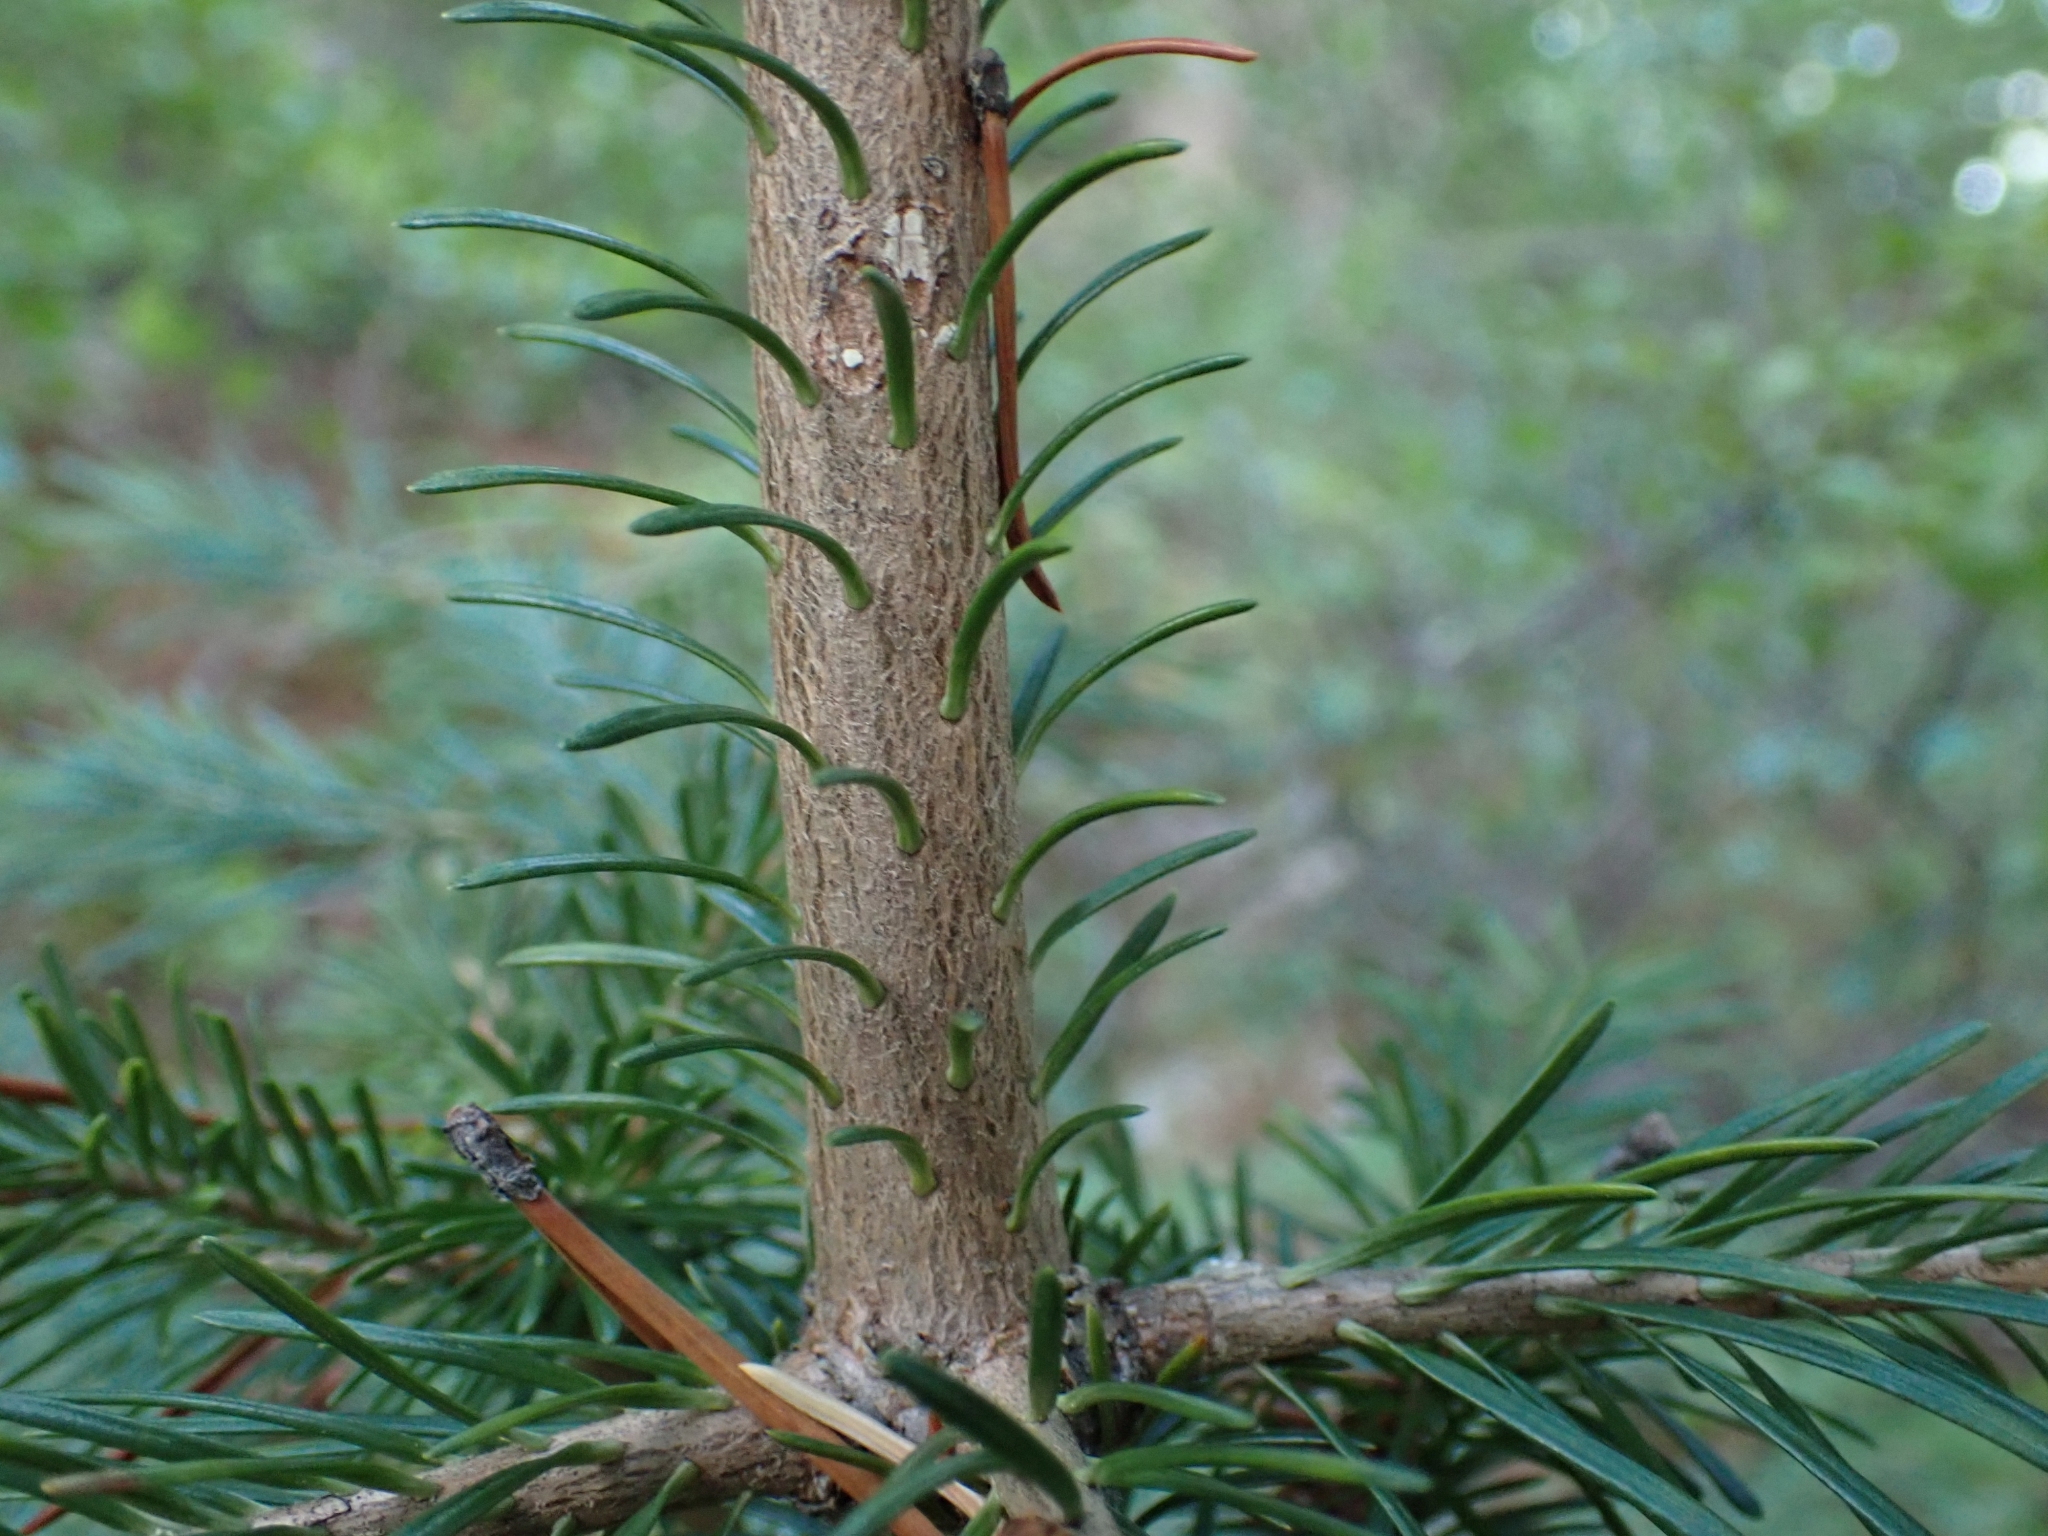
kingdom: Plantae
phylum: Tracheophyta
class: Pinopsida
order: Pinales
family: Pinaceae
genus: Abies
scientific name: Abies lasiocarpa
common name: Subalpine fir
